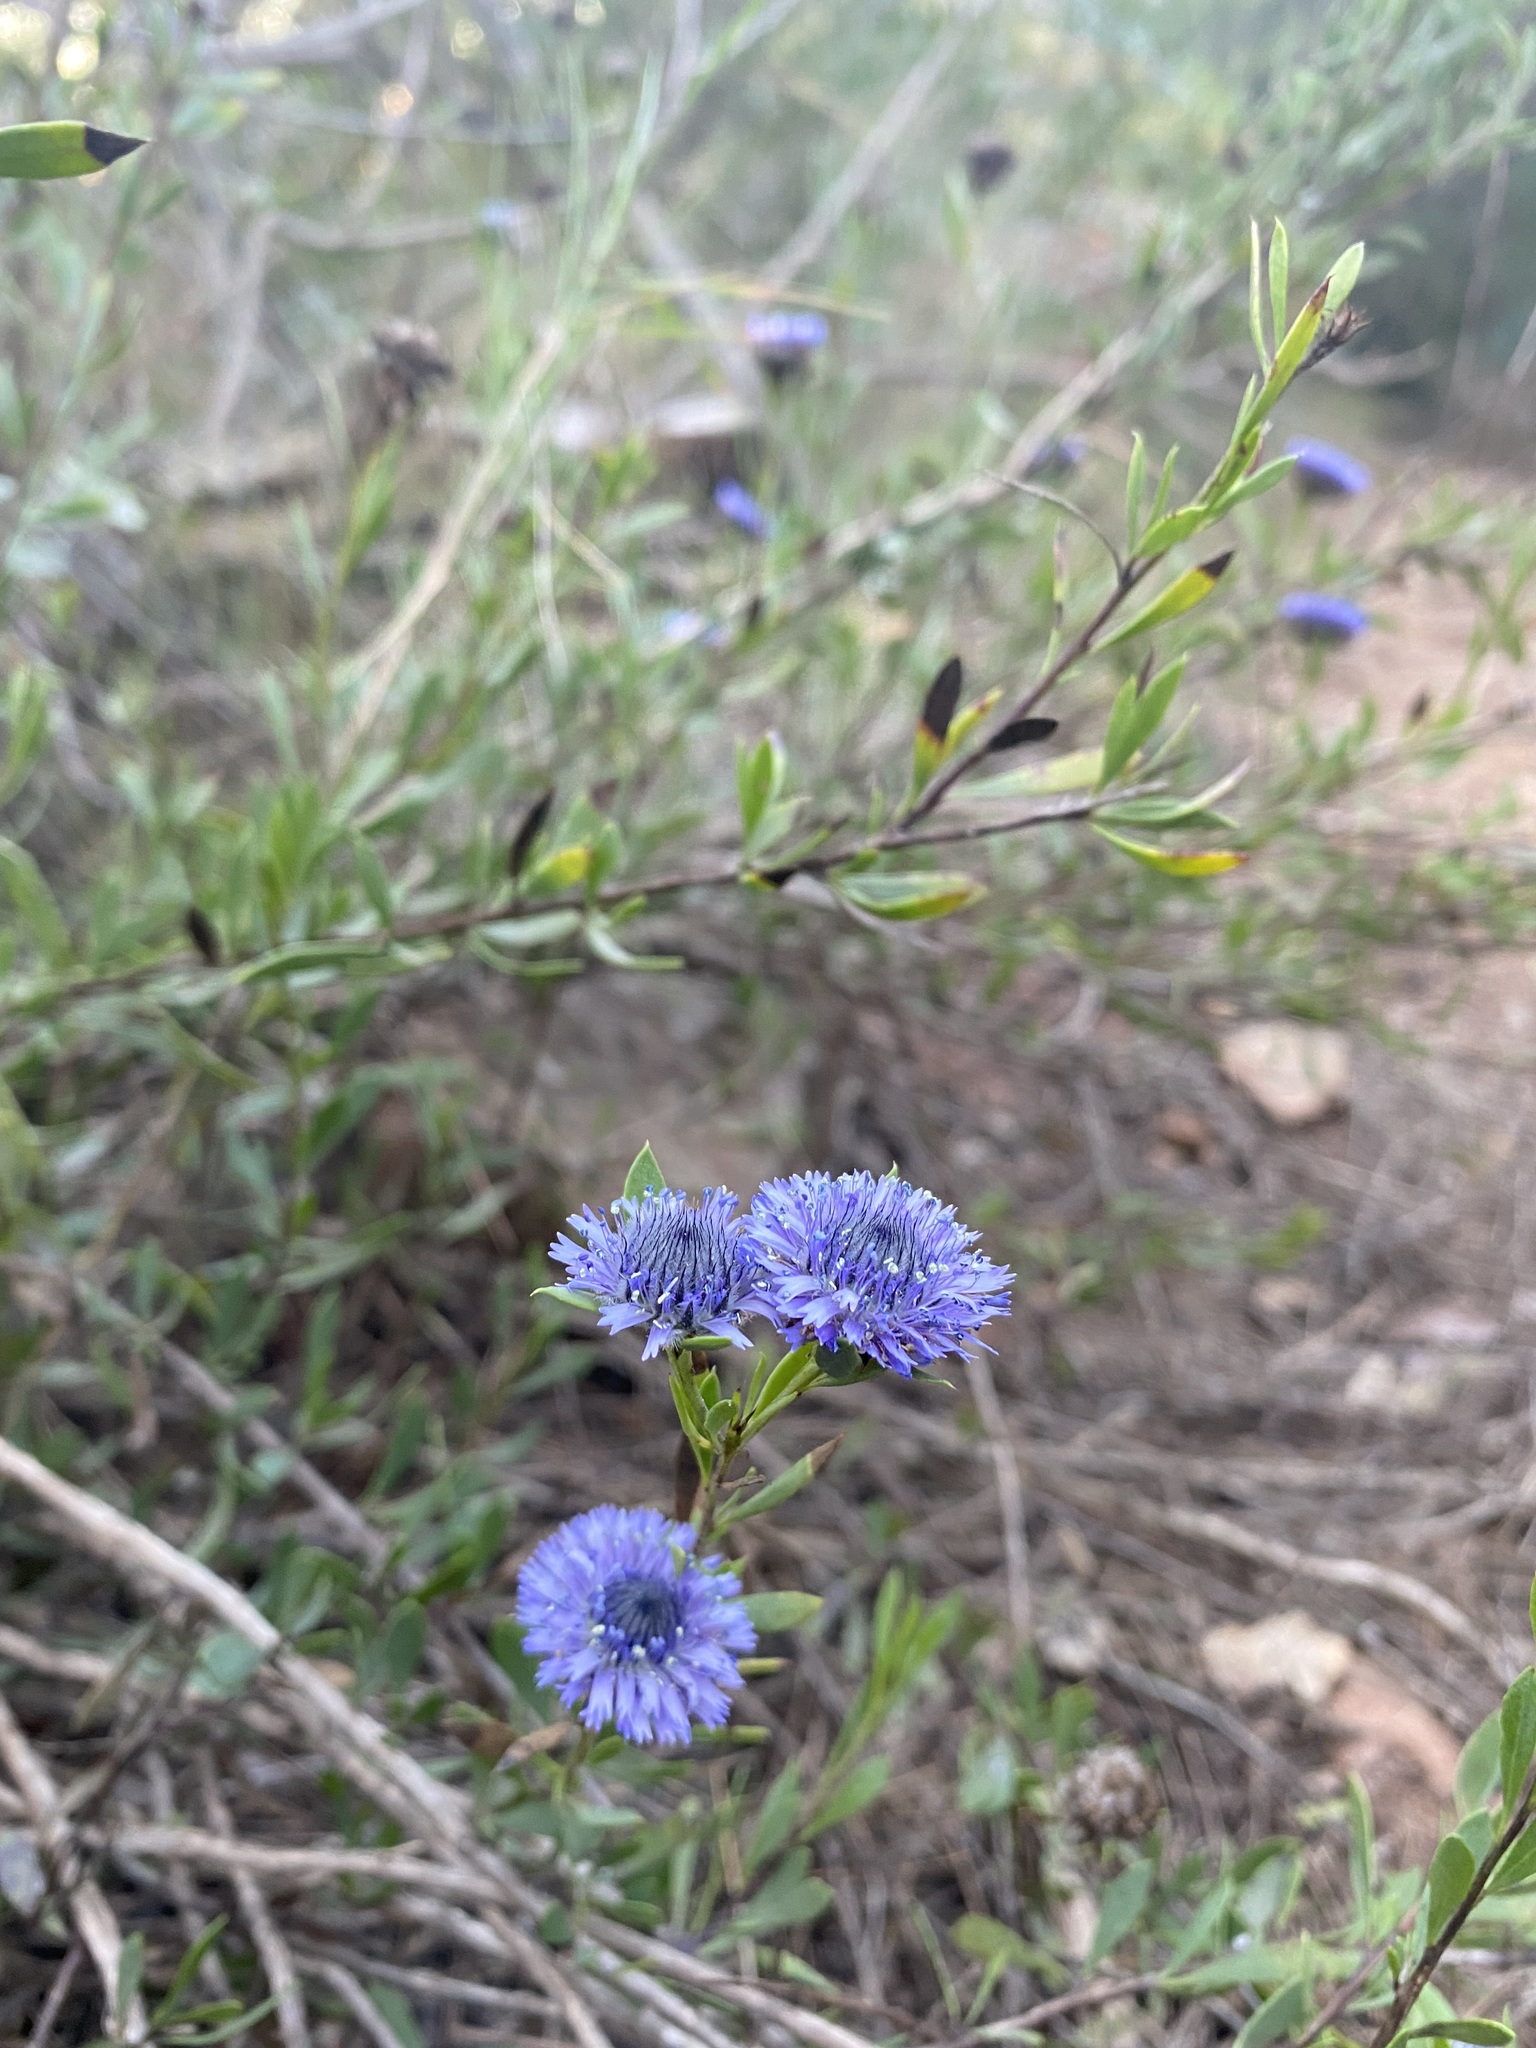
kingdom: Plantae
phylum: Tracheophyta
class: Magnoliopsida
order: Lamiales
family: Plantaginaceae
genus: Globularia
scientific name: Globularia alypum
